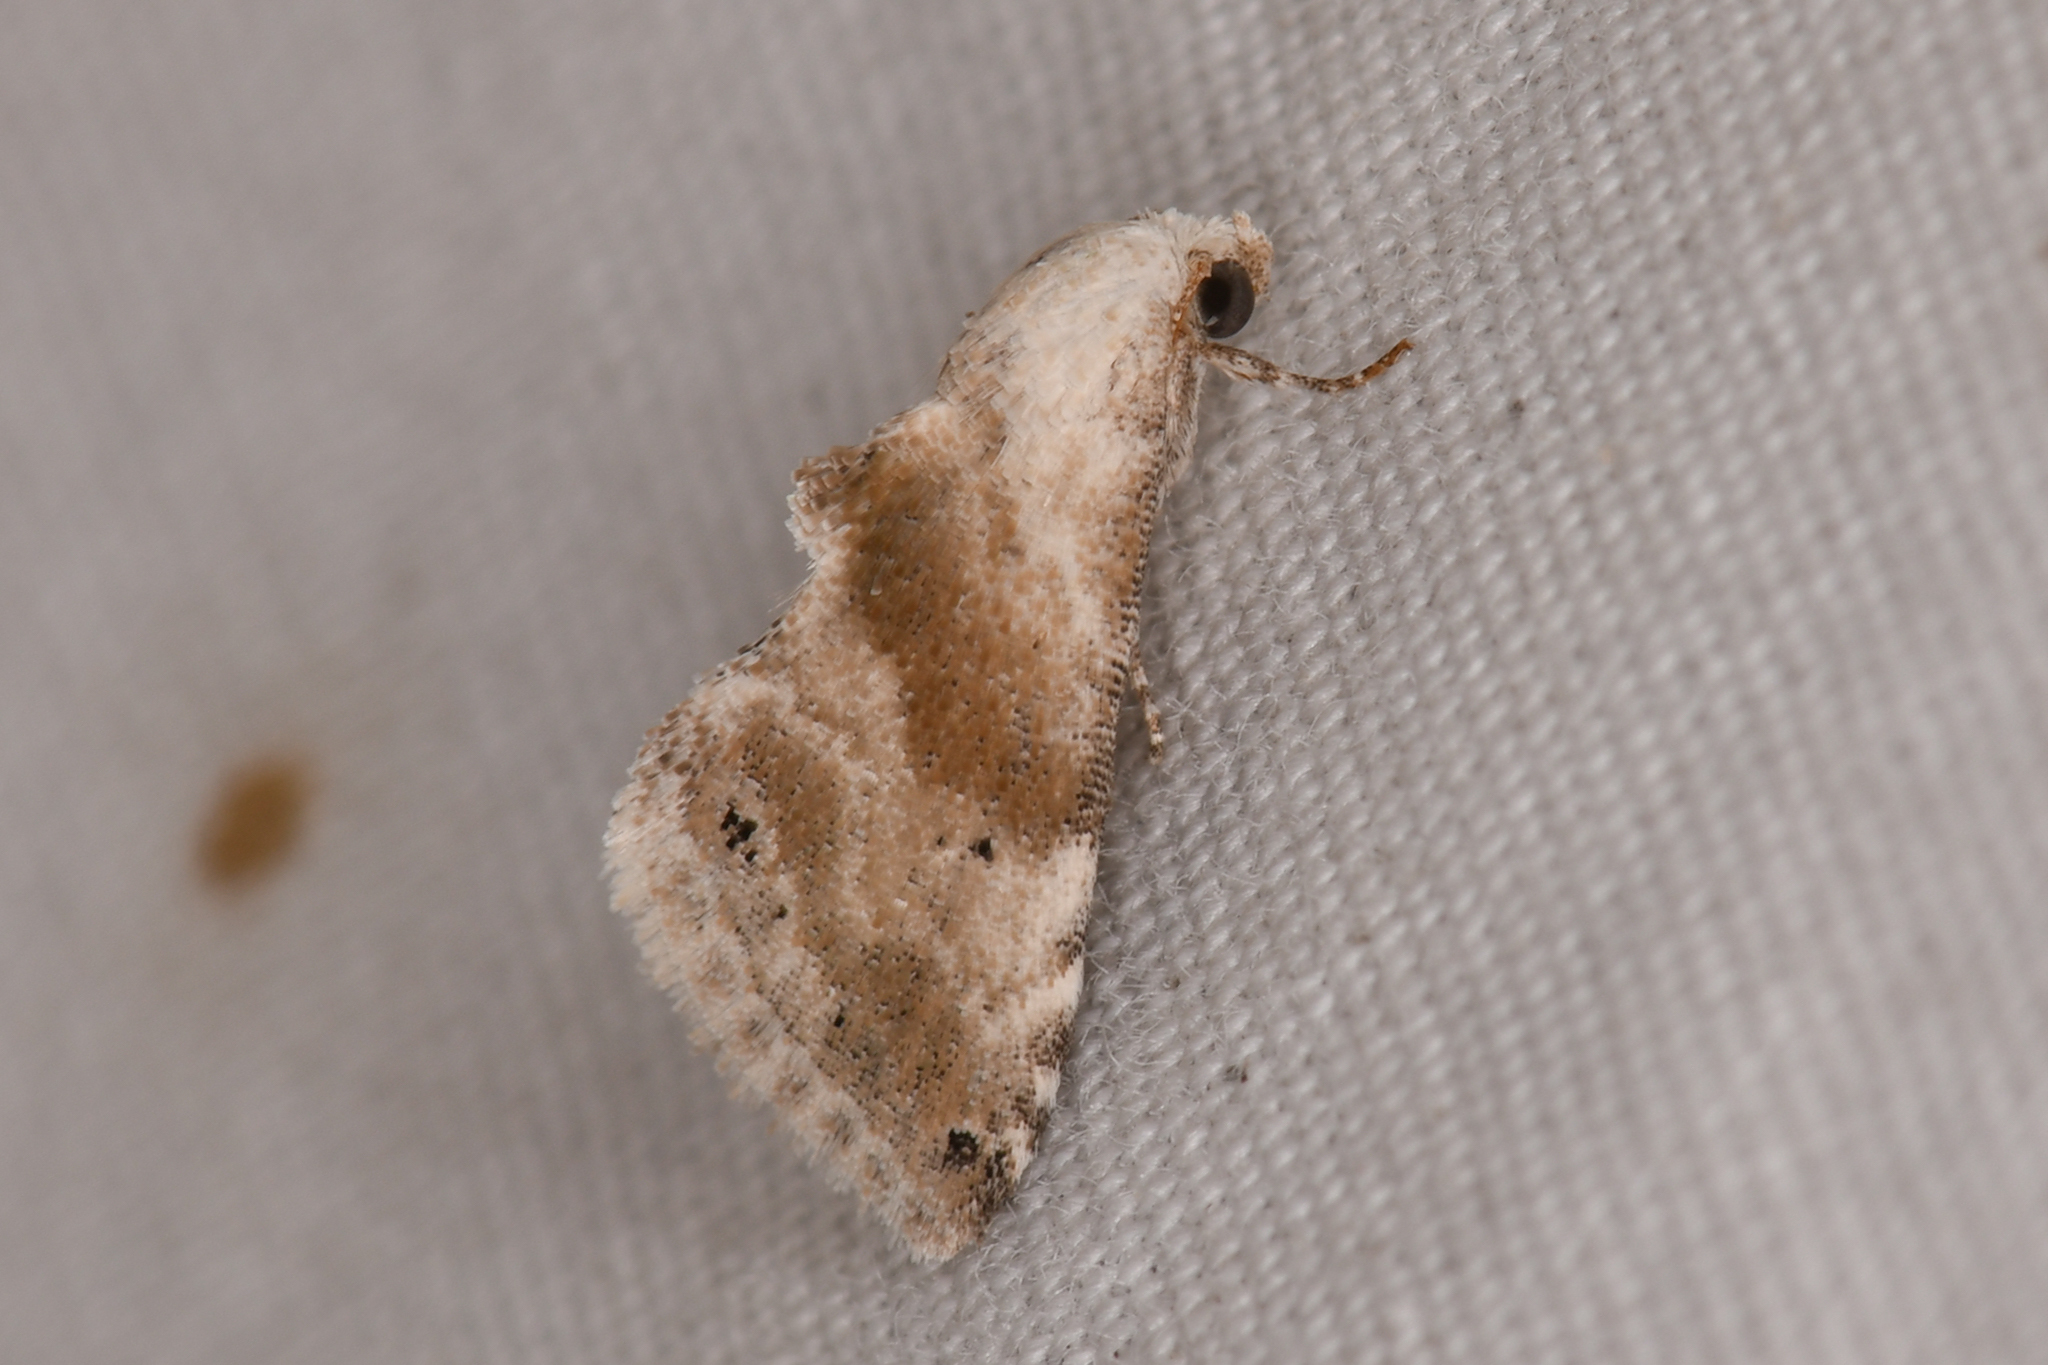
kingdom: Animalia
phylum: Arthropoda
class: Insecta
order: Lepidoptera
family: Noctuidae
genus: Eublemma
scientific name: Eublemma minima
